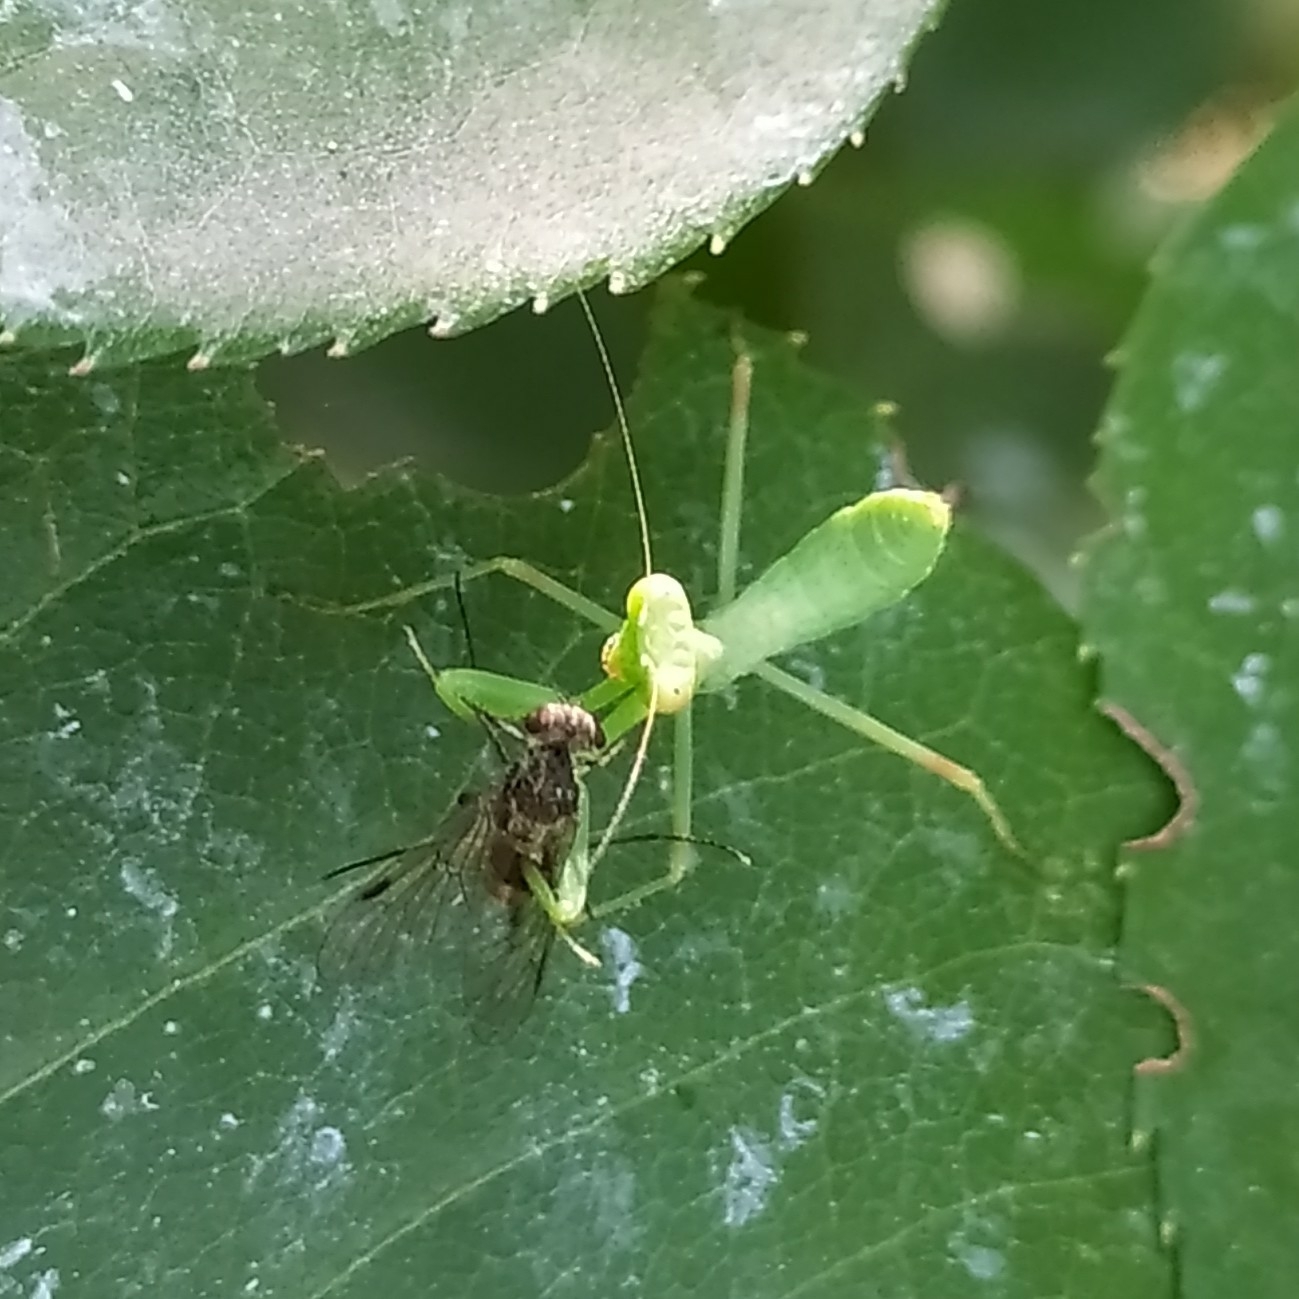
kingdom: Animalia
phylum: Arthropoda
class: Insecta
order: Mantodea
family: Mantidae
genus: Hierodula
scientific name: Hierodula transcaucasica
